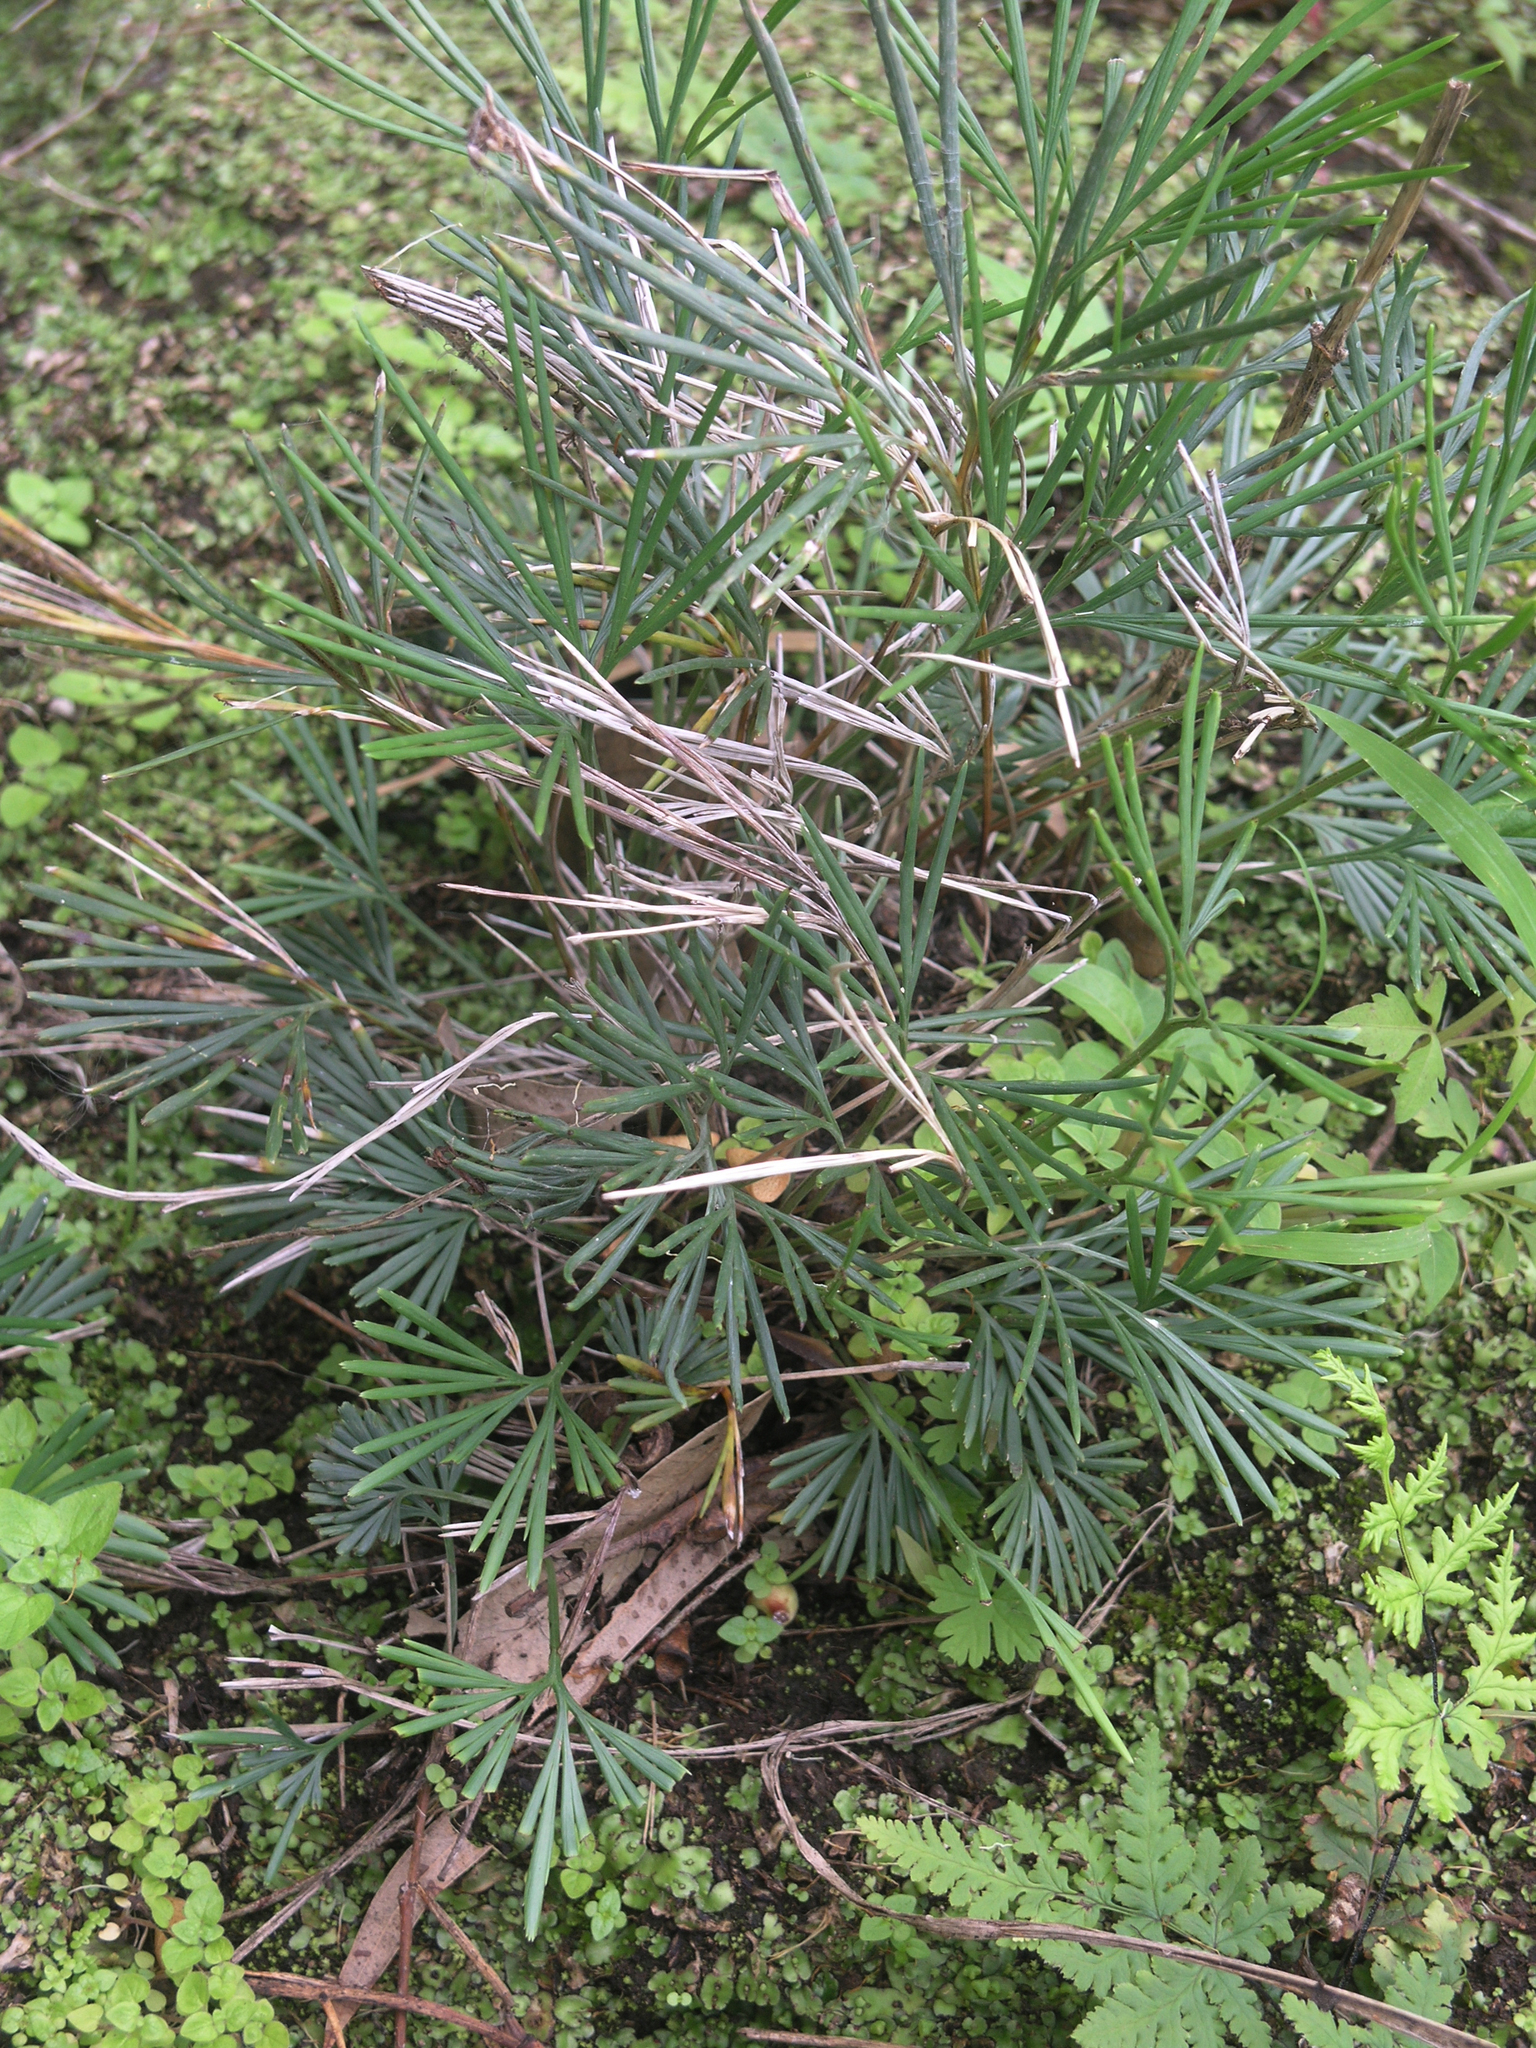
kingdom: Plantae
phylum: Tracheophyta
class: Polypodiopsida
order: Polypodiales
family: Pteridaceae
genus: Actiniopteris
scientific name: Actiniopteris semiflabellata
